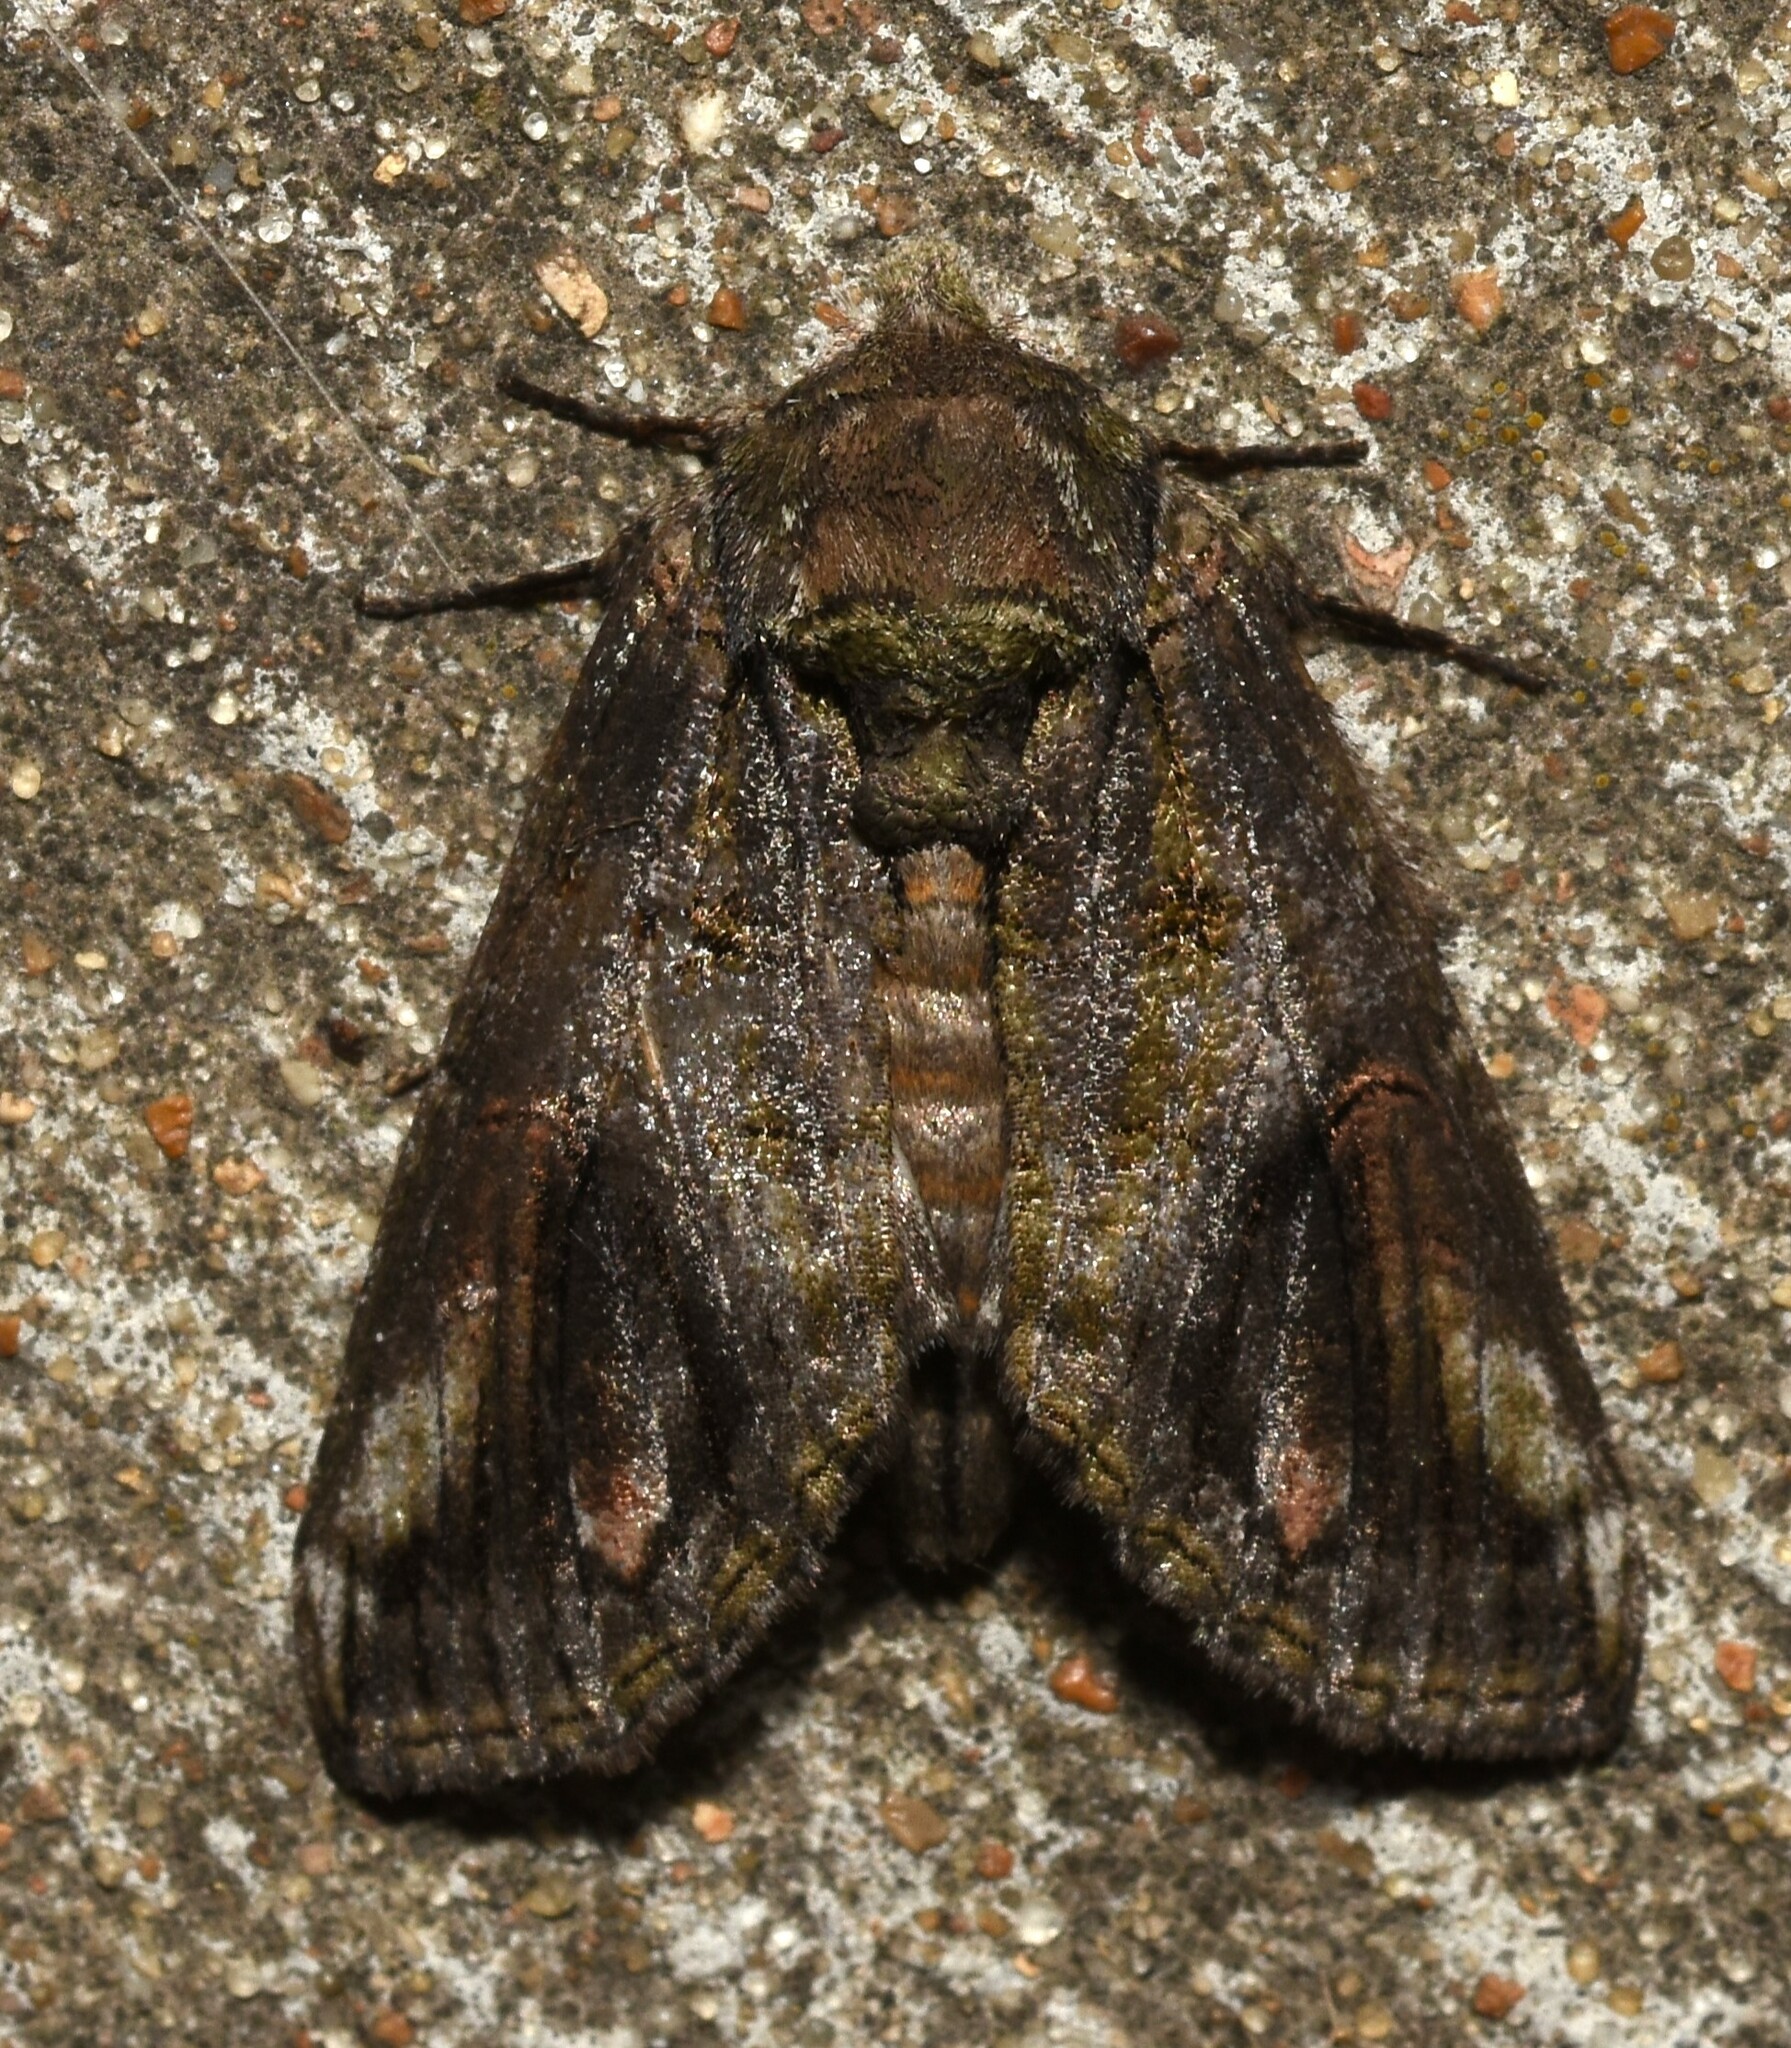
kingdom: Animalia
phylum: Arthropoda
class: Insecta
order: Lepidoptera
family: Notodontidae
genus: Heterocampa
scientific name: Heterocampa obliqua
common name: Oblique heterocampa
